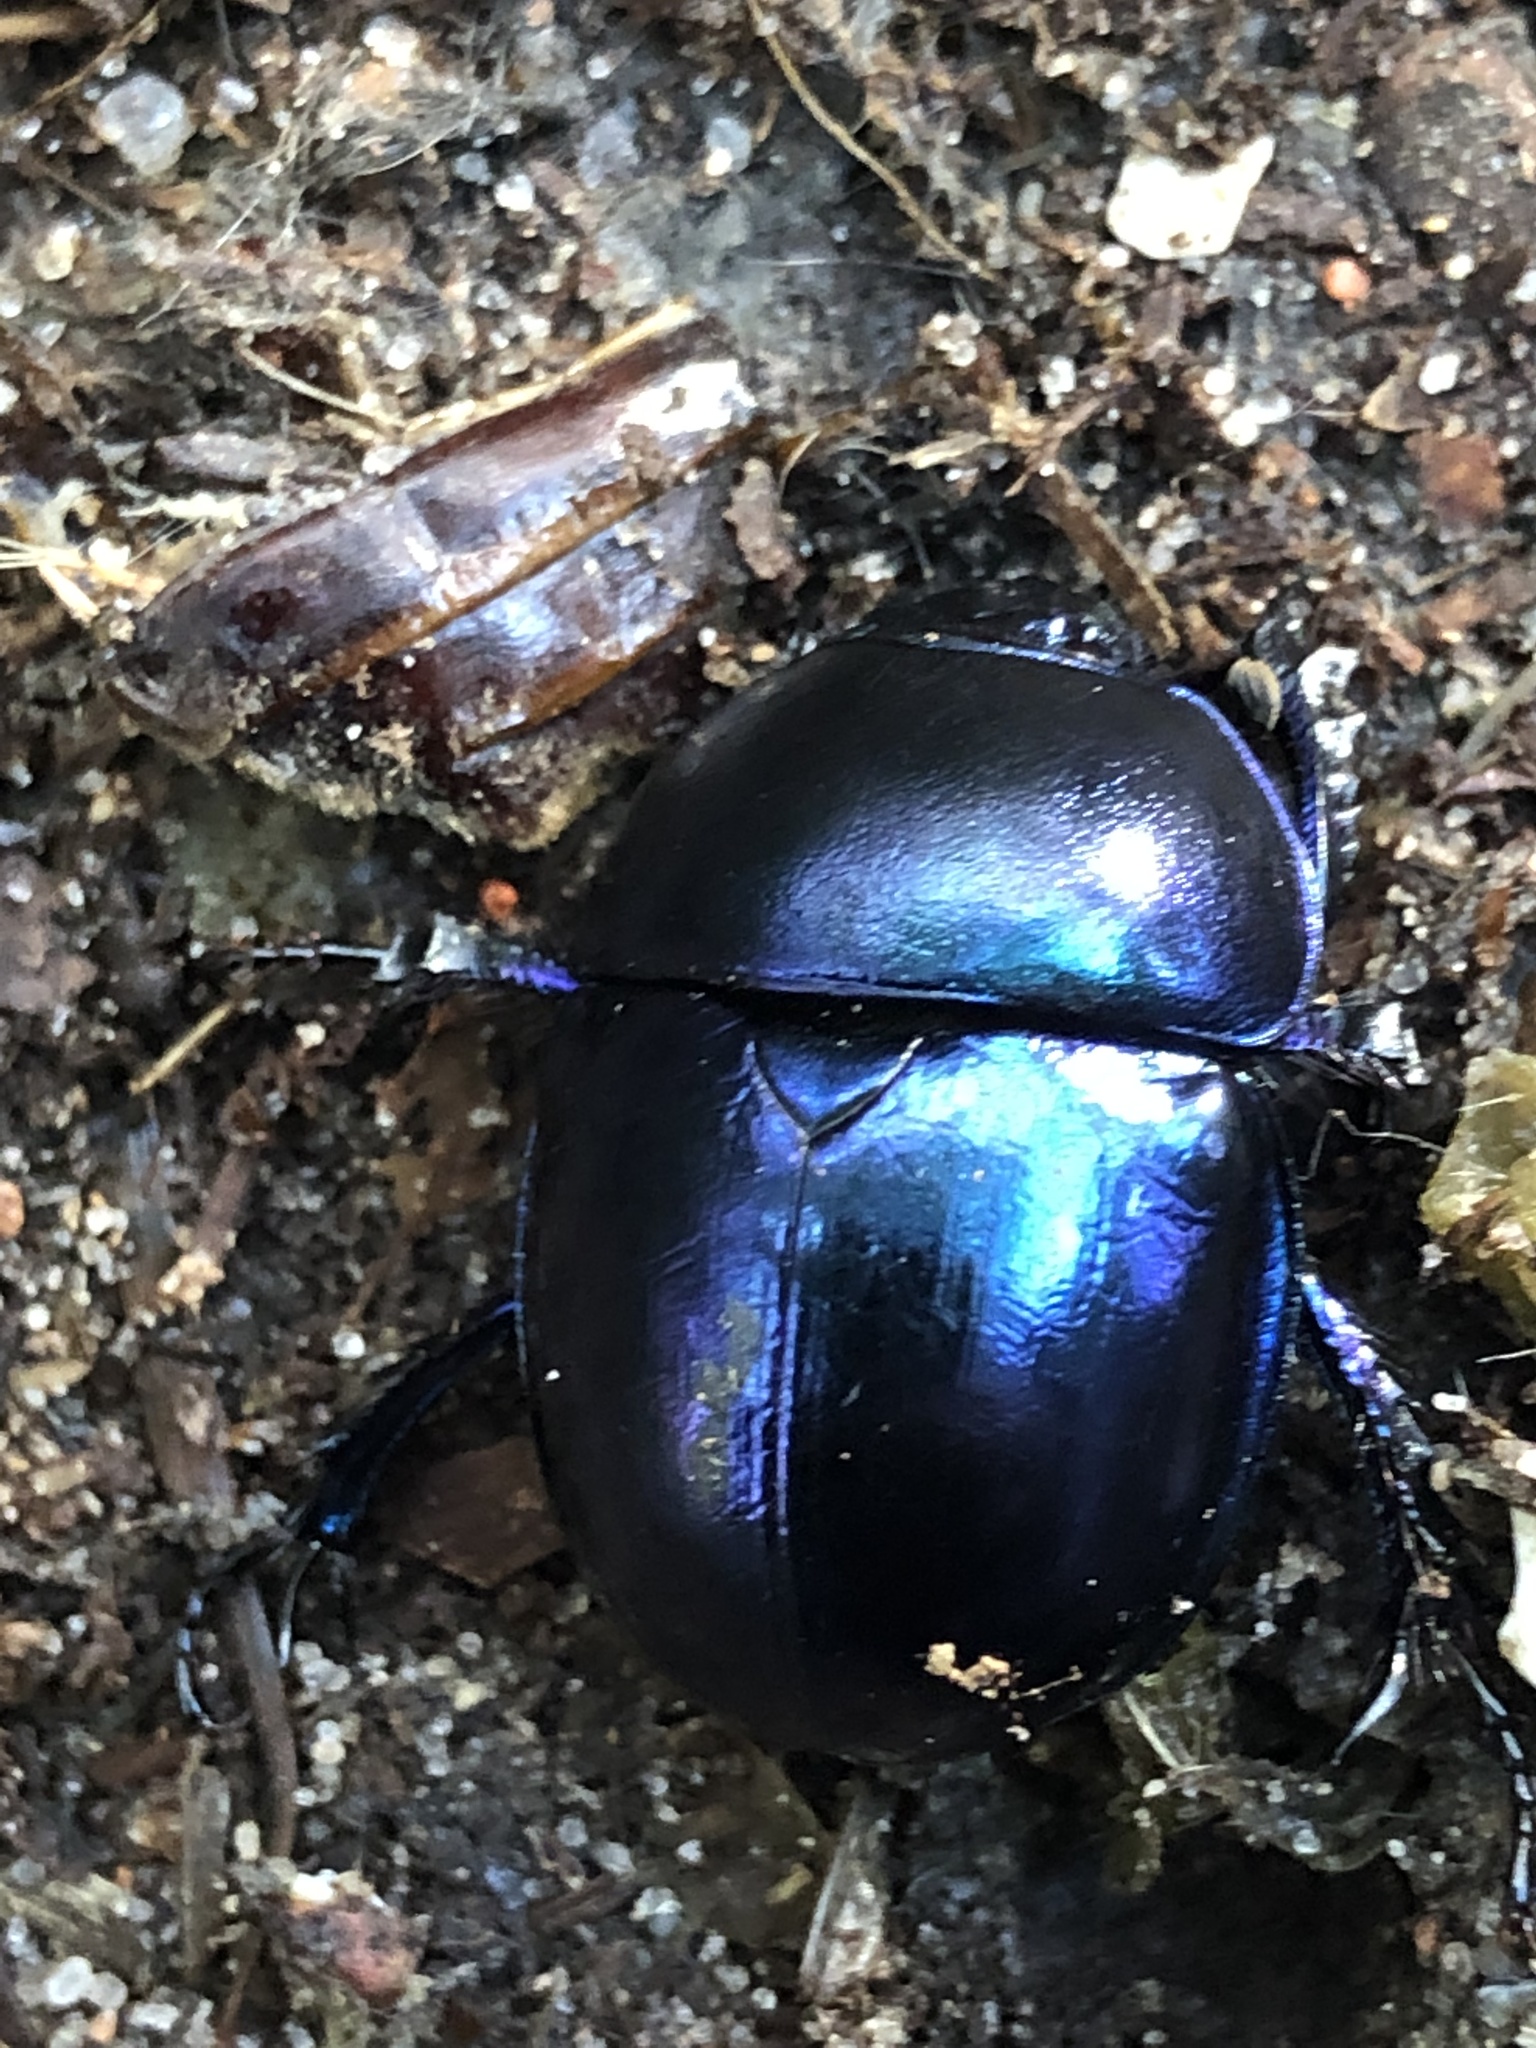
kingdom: Animalia
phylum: Arthropoda
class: Insecta
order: Coleoptera
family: Geotrupidae
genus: Trypocopris
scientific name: Trypocopris vernalis
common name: Spring dumbledor
